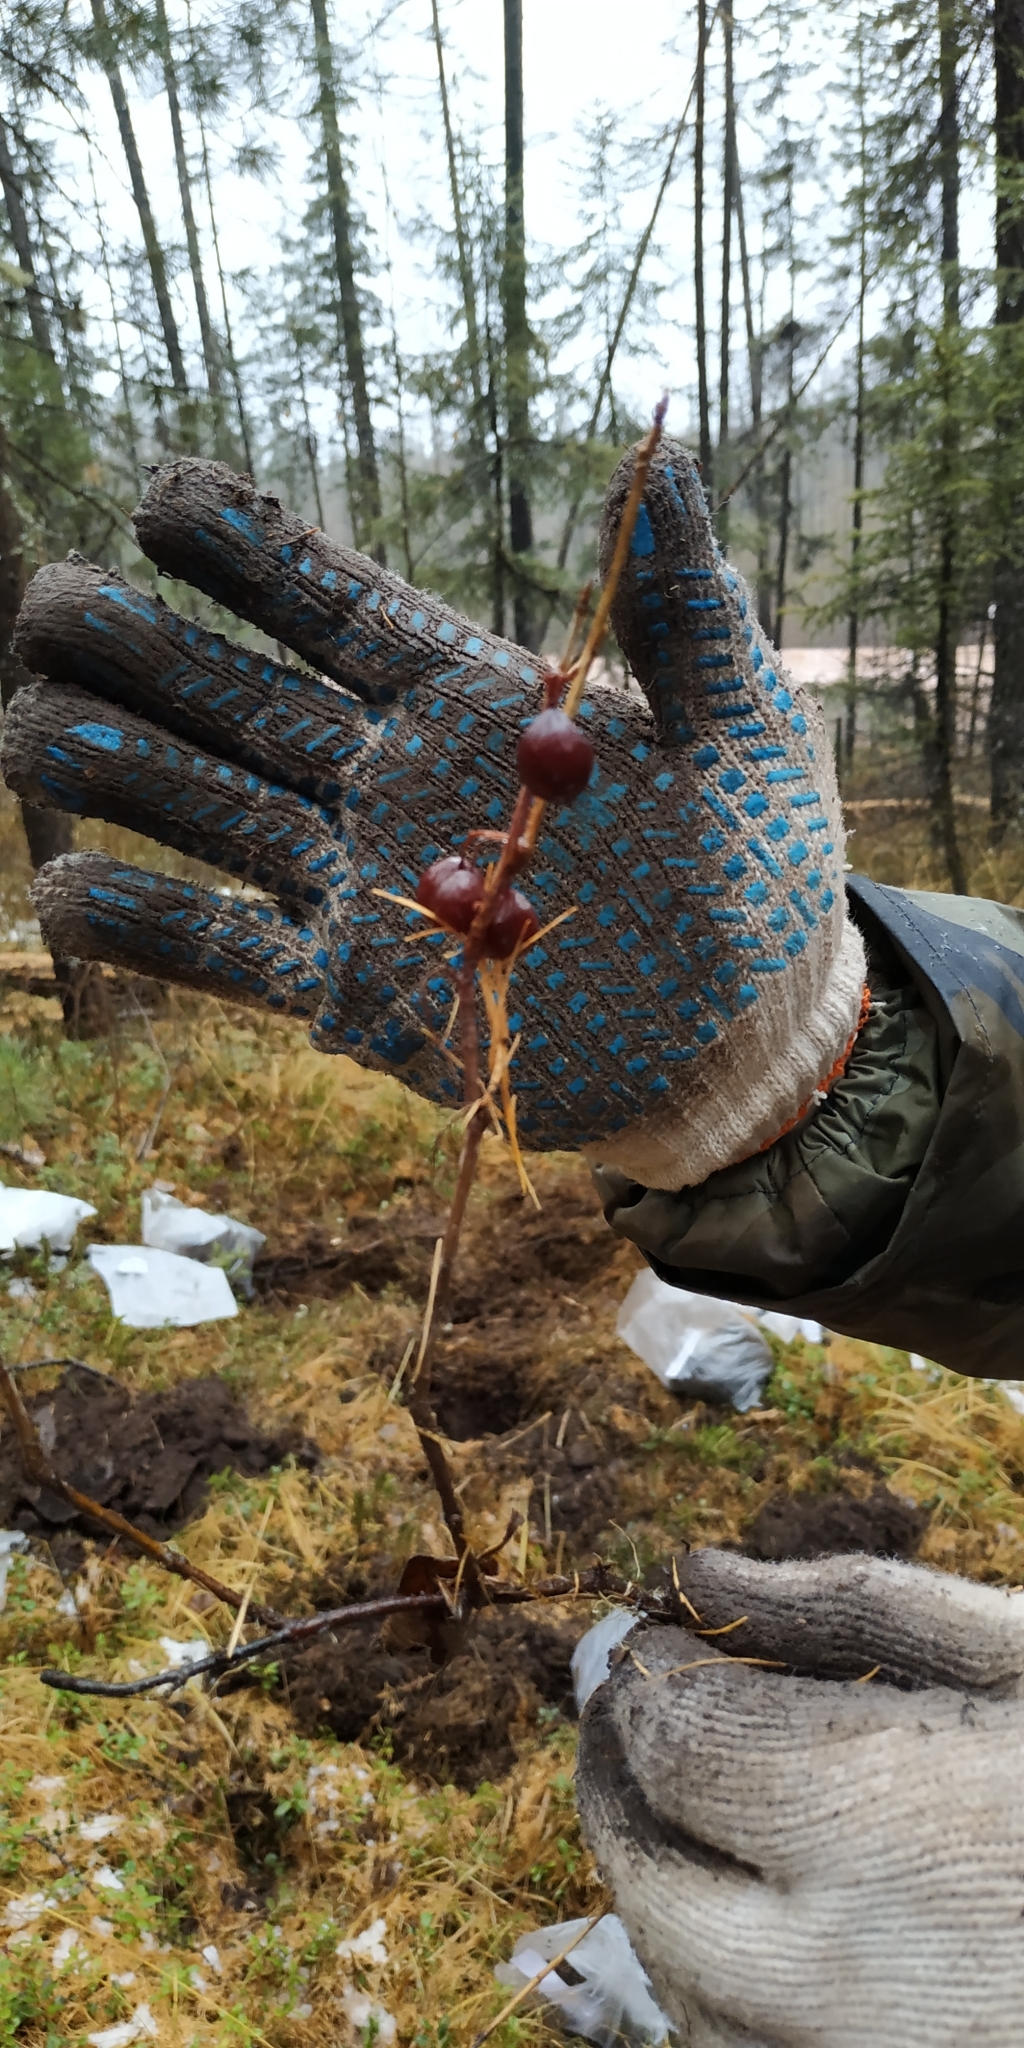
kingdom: Plantae
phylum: Tracheophyta
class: Magnoliopsida
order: Saxifragales
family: Grossulariaceae
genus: Ribes
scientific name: Ribes procumbens
